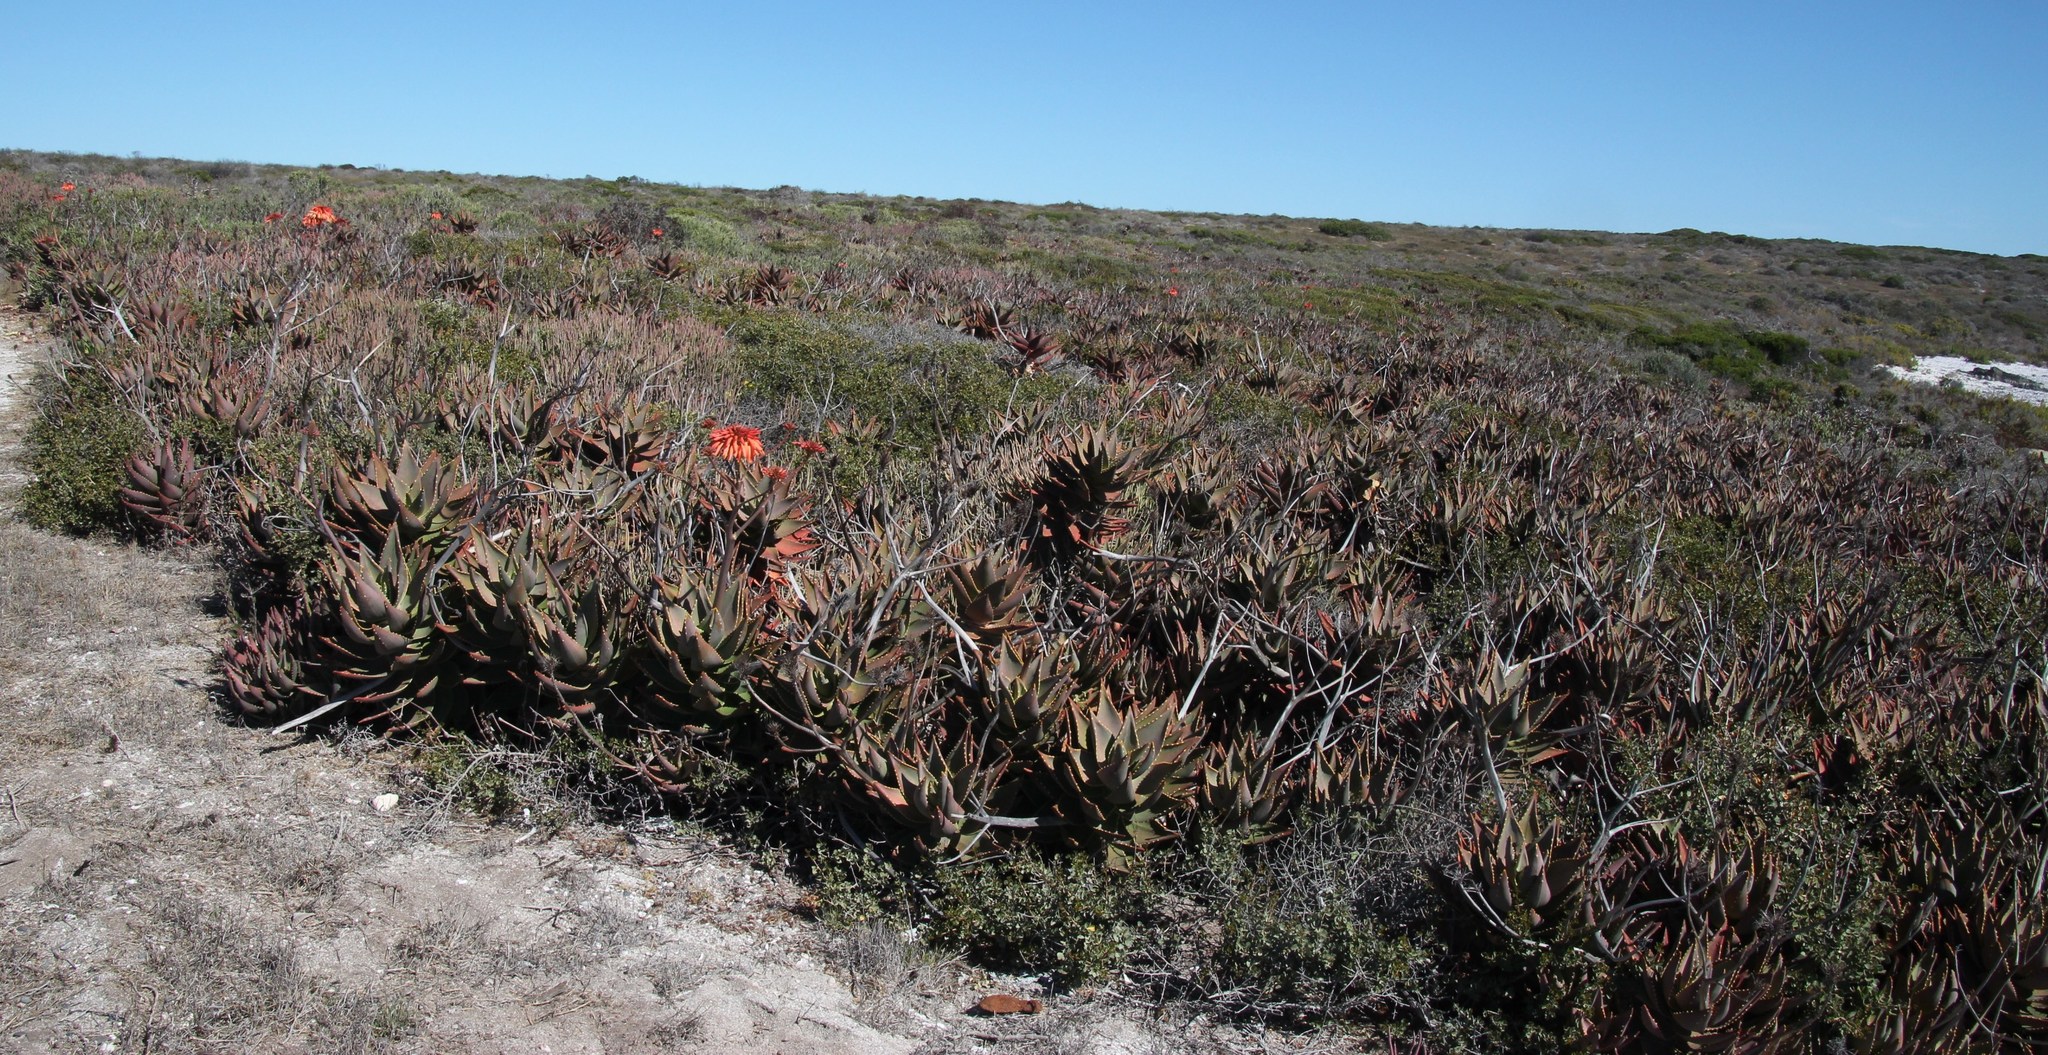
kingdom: Plantae
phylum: Tracheophyta
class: Liliopsida
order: Asparagales
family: Asphodelaceae
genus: Aloe
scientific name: Aloe distans
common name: Short-leaved aloe
